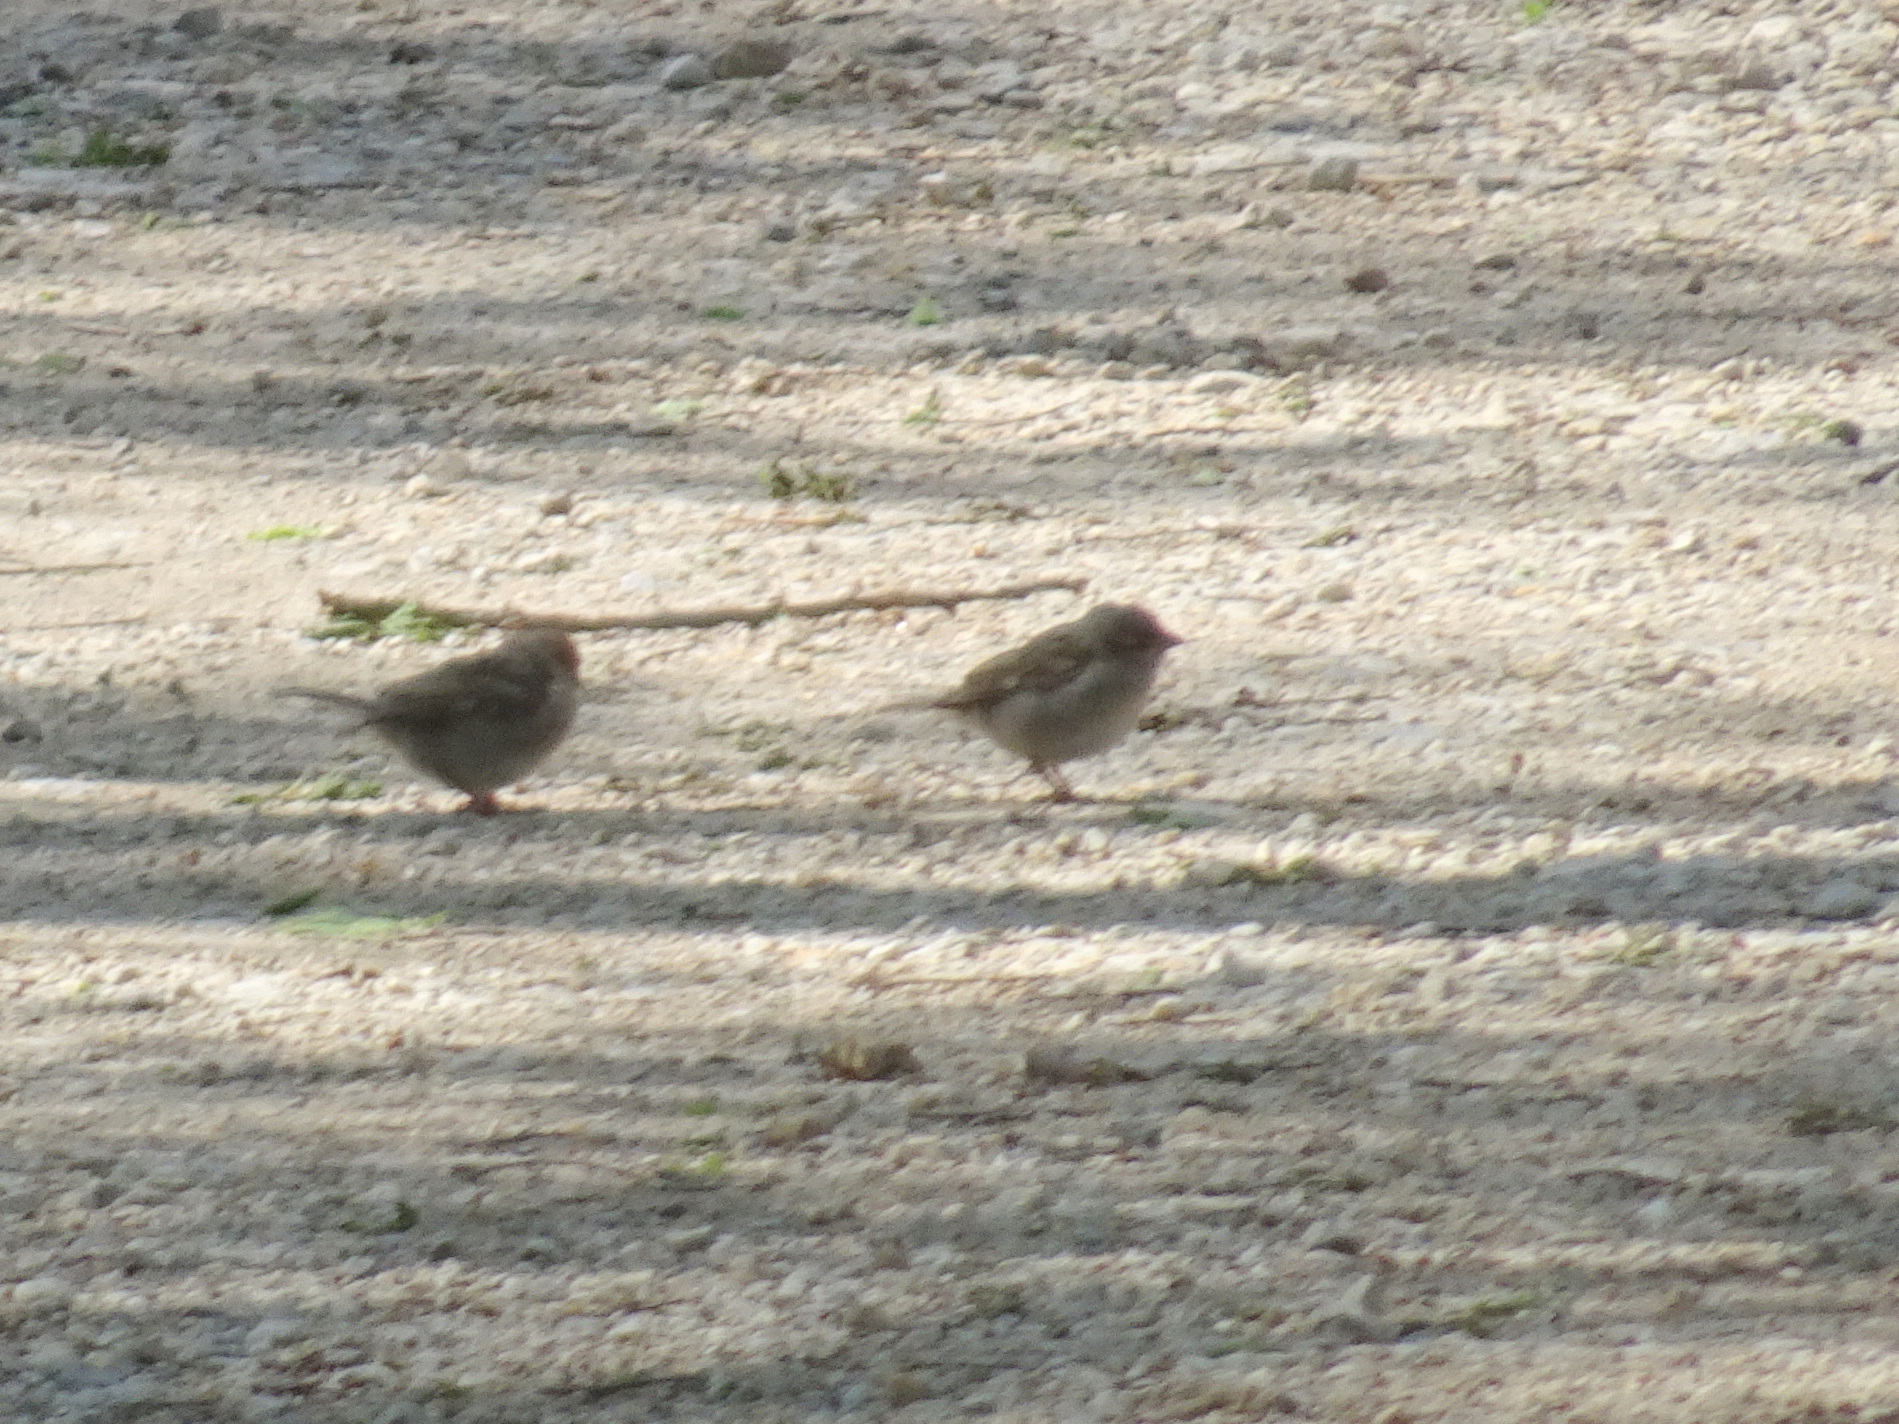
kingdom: Animalia
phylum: Chordata
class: Aves
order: Passeriformes
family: Passeridae
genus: Passer
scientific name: Passer domesticus
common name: House sparrow
